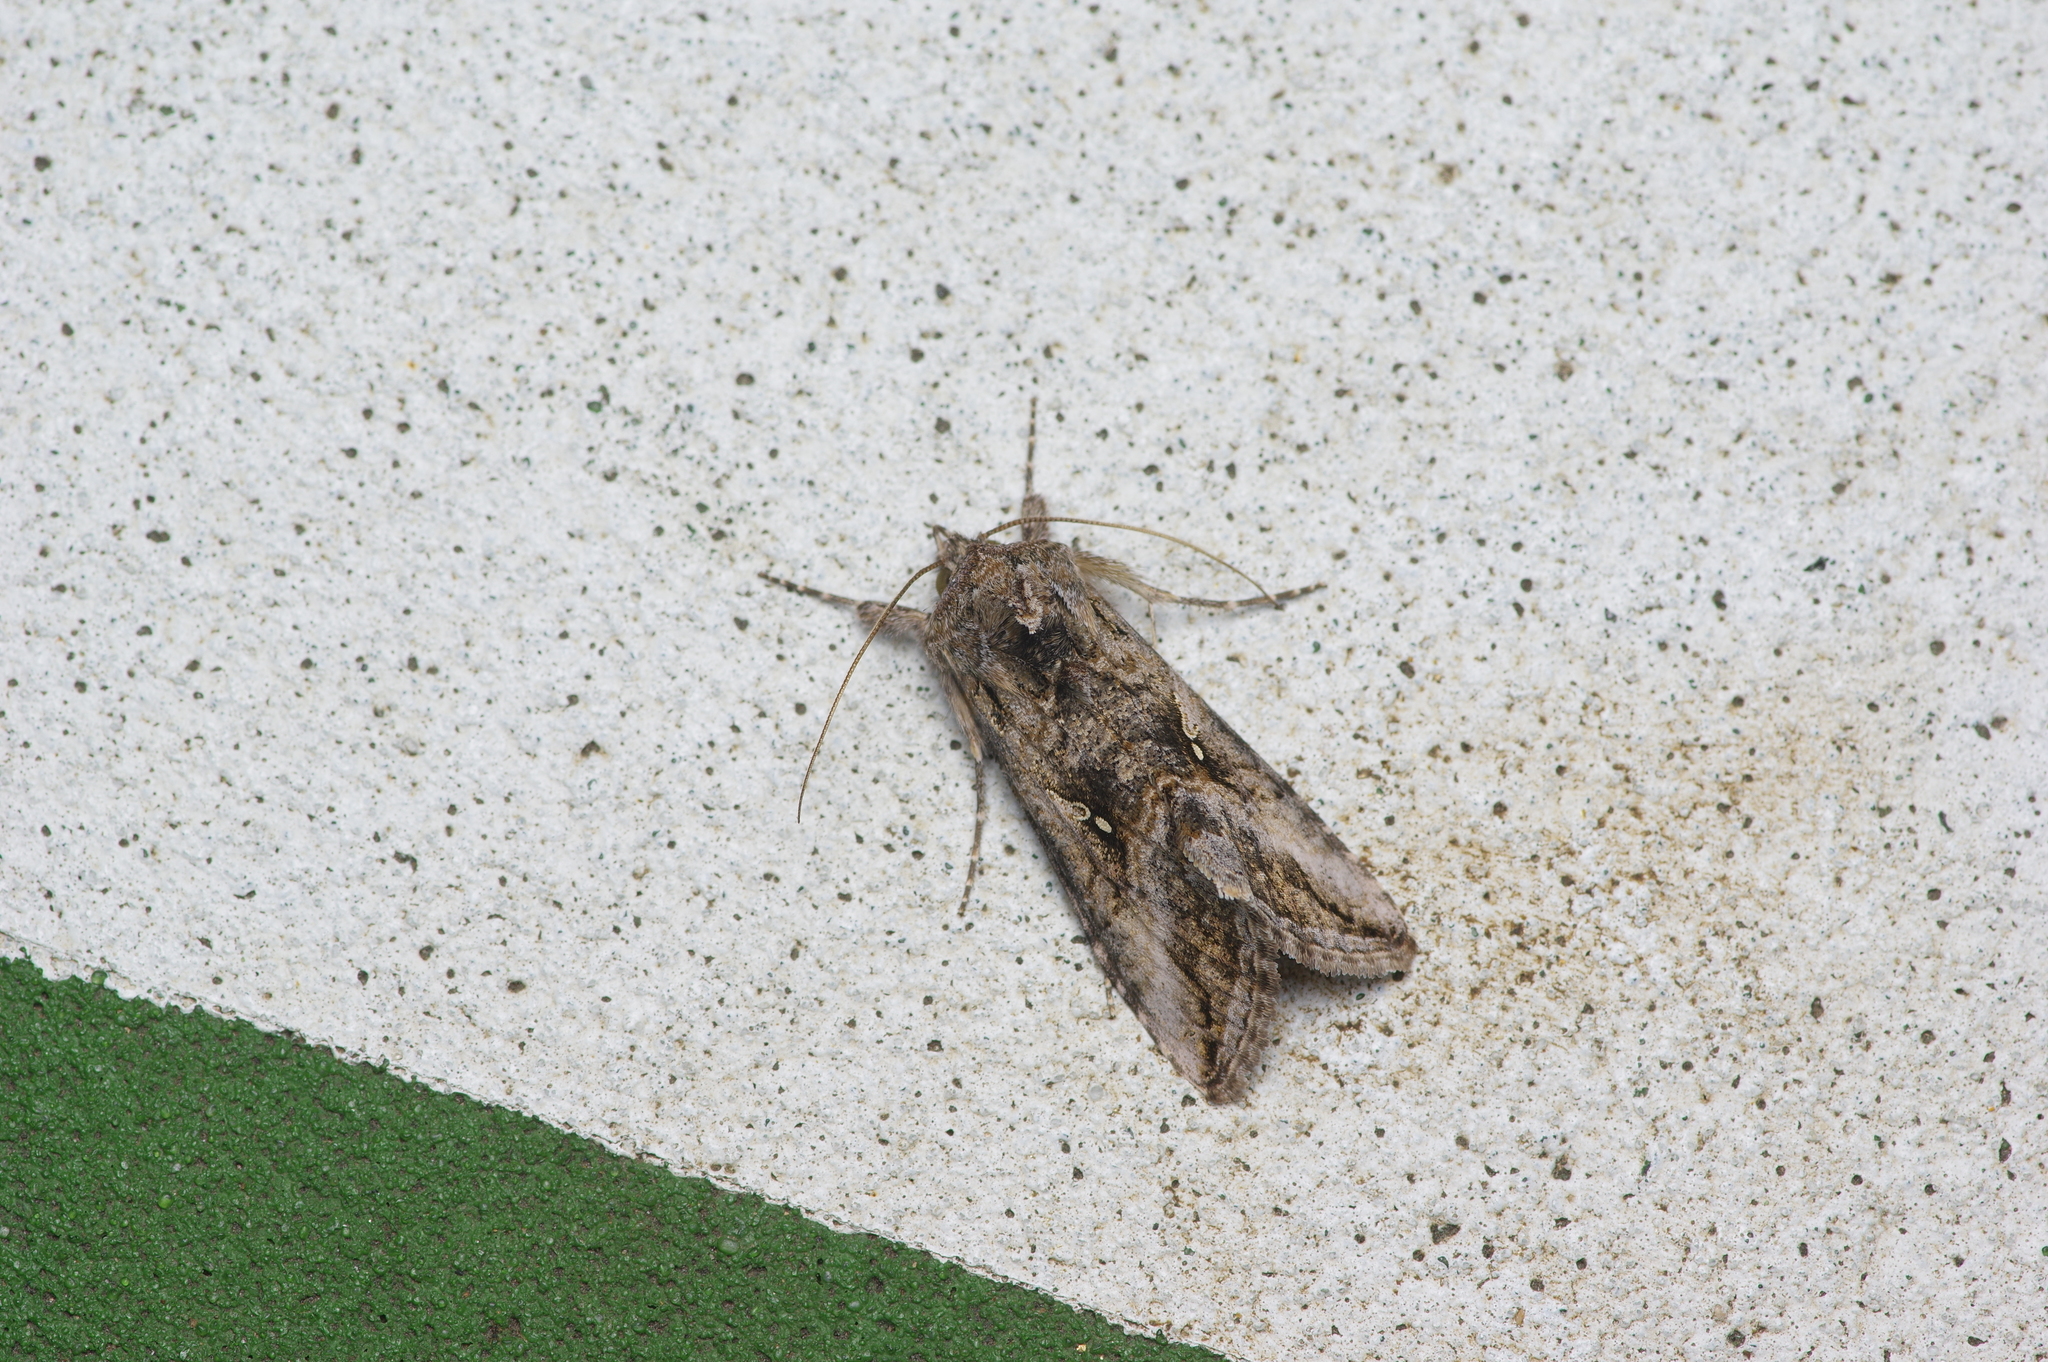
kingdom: Animalia
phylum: Arthropoda
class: Insecta
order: Lepidoptera
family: Noctuidae
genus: Rachiplusia
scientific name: Rachiplusia ou
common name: Gray looper moth
